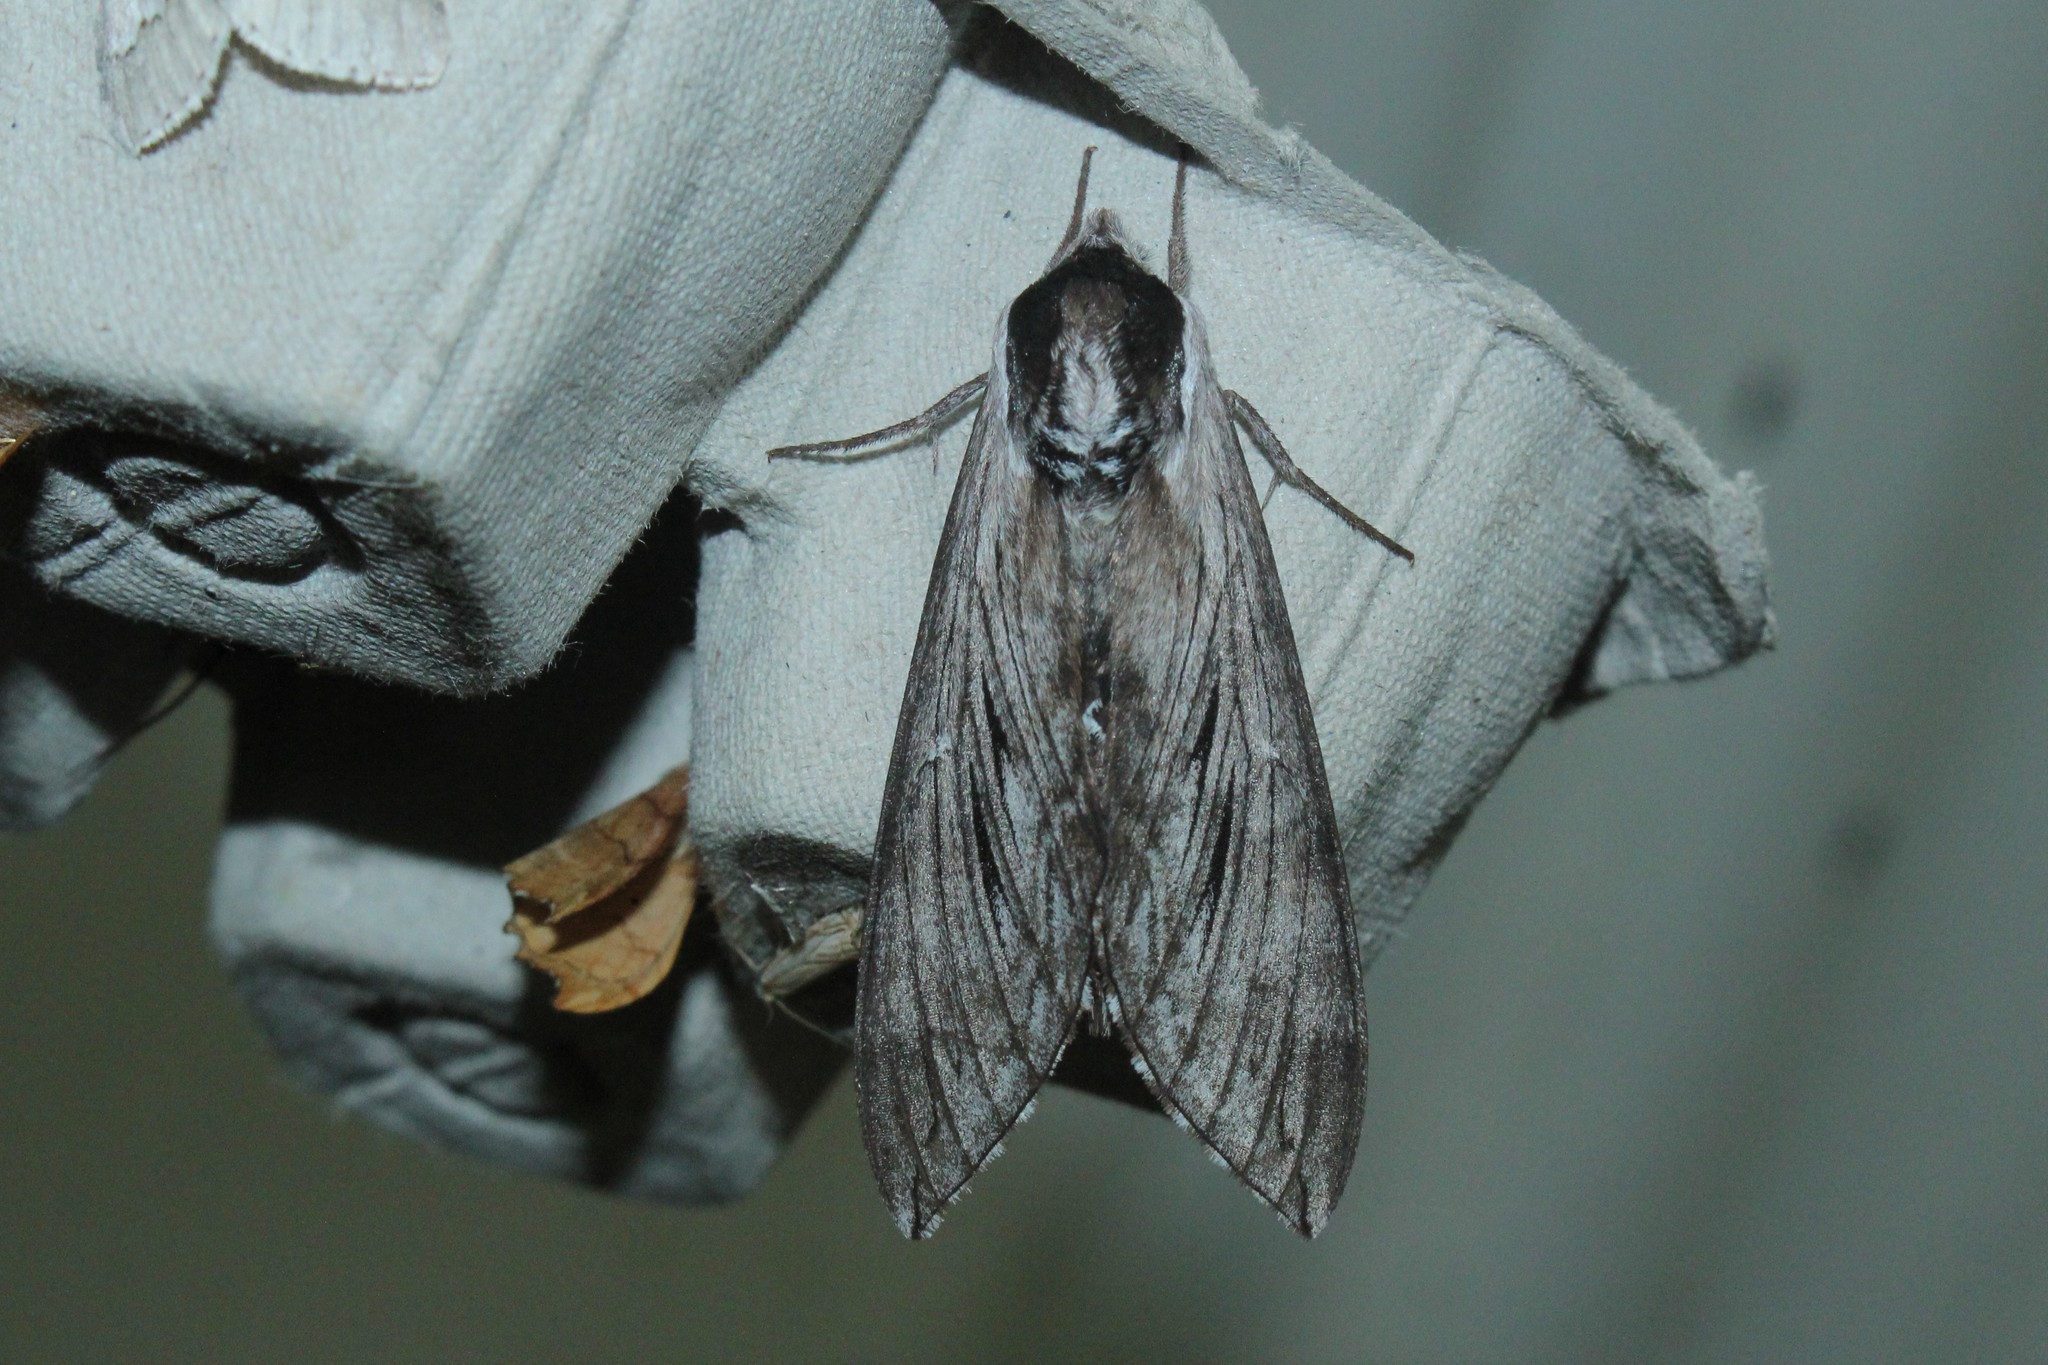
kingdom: Animalia
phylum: Arthropoda
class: Insecta
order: Lepidoptera
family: Sphingidae
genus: Sphinx
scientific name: Sphinx poecila
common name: Northern apple sphinx
